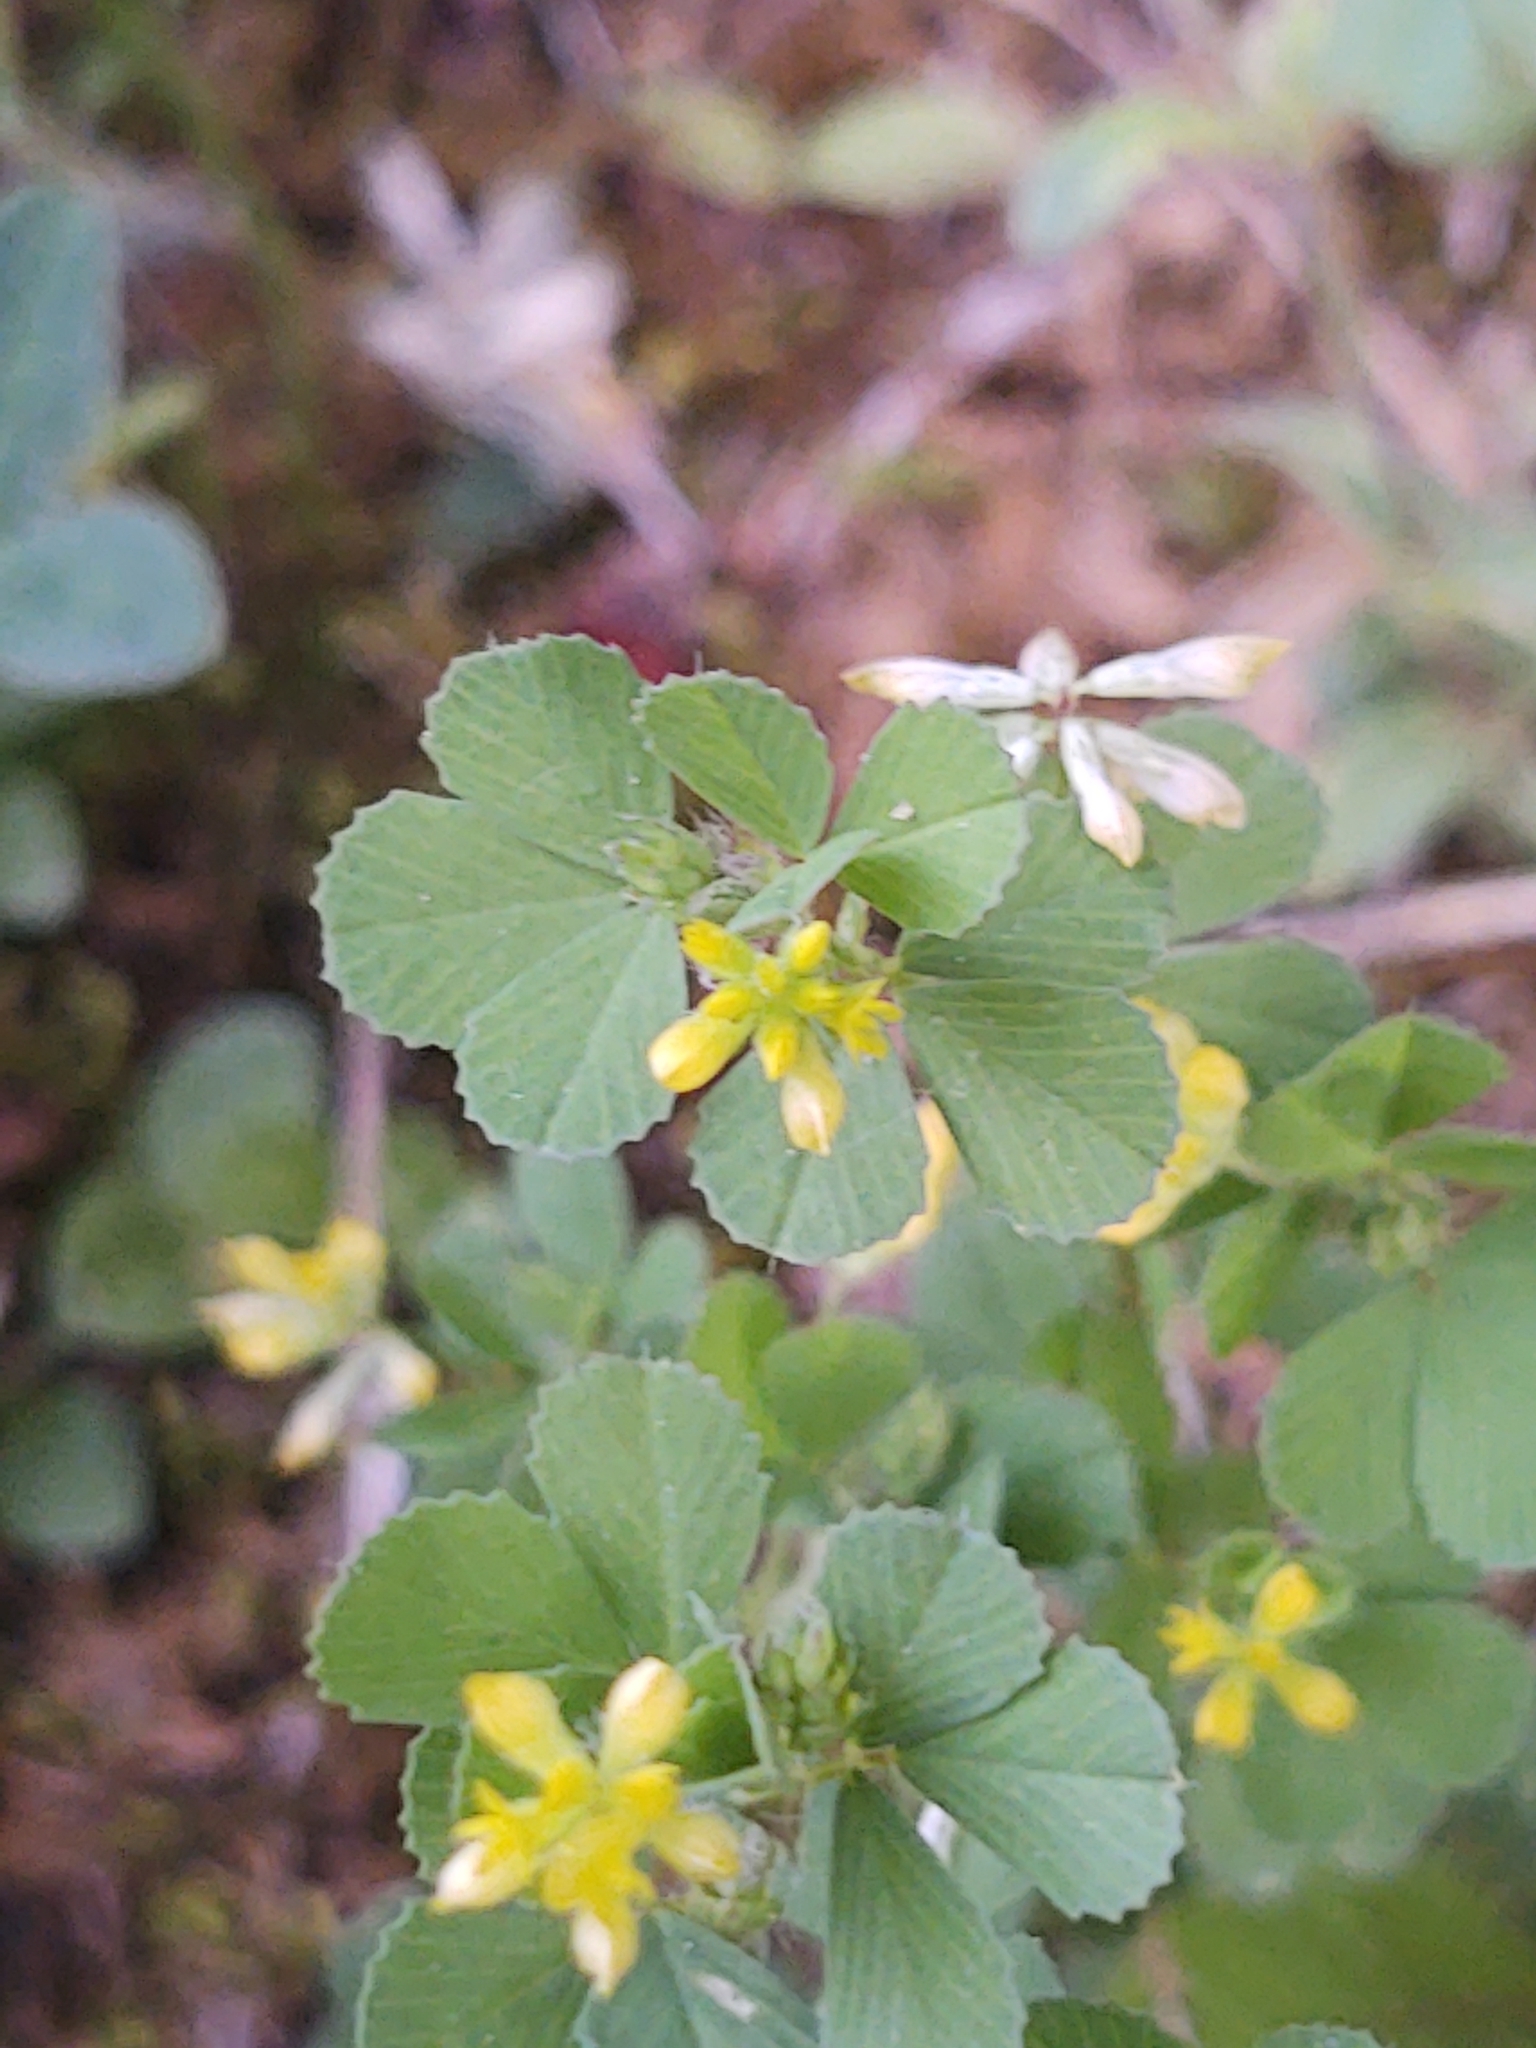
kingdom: Plantae
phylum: Tracheophyta
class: Magnoliopsida
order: Fabales
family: Fabaceae
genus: Trifolium
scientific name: Trifolium dubium
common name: Suckling clover
